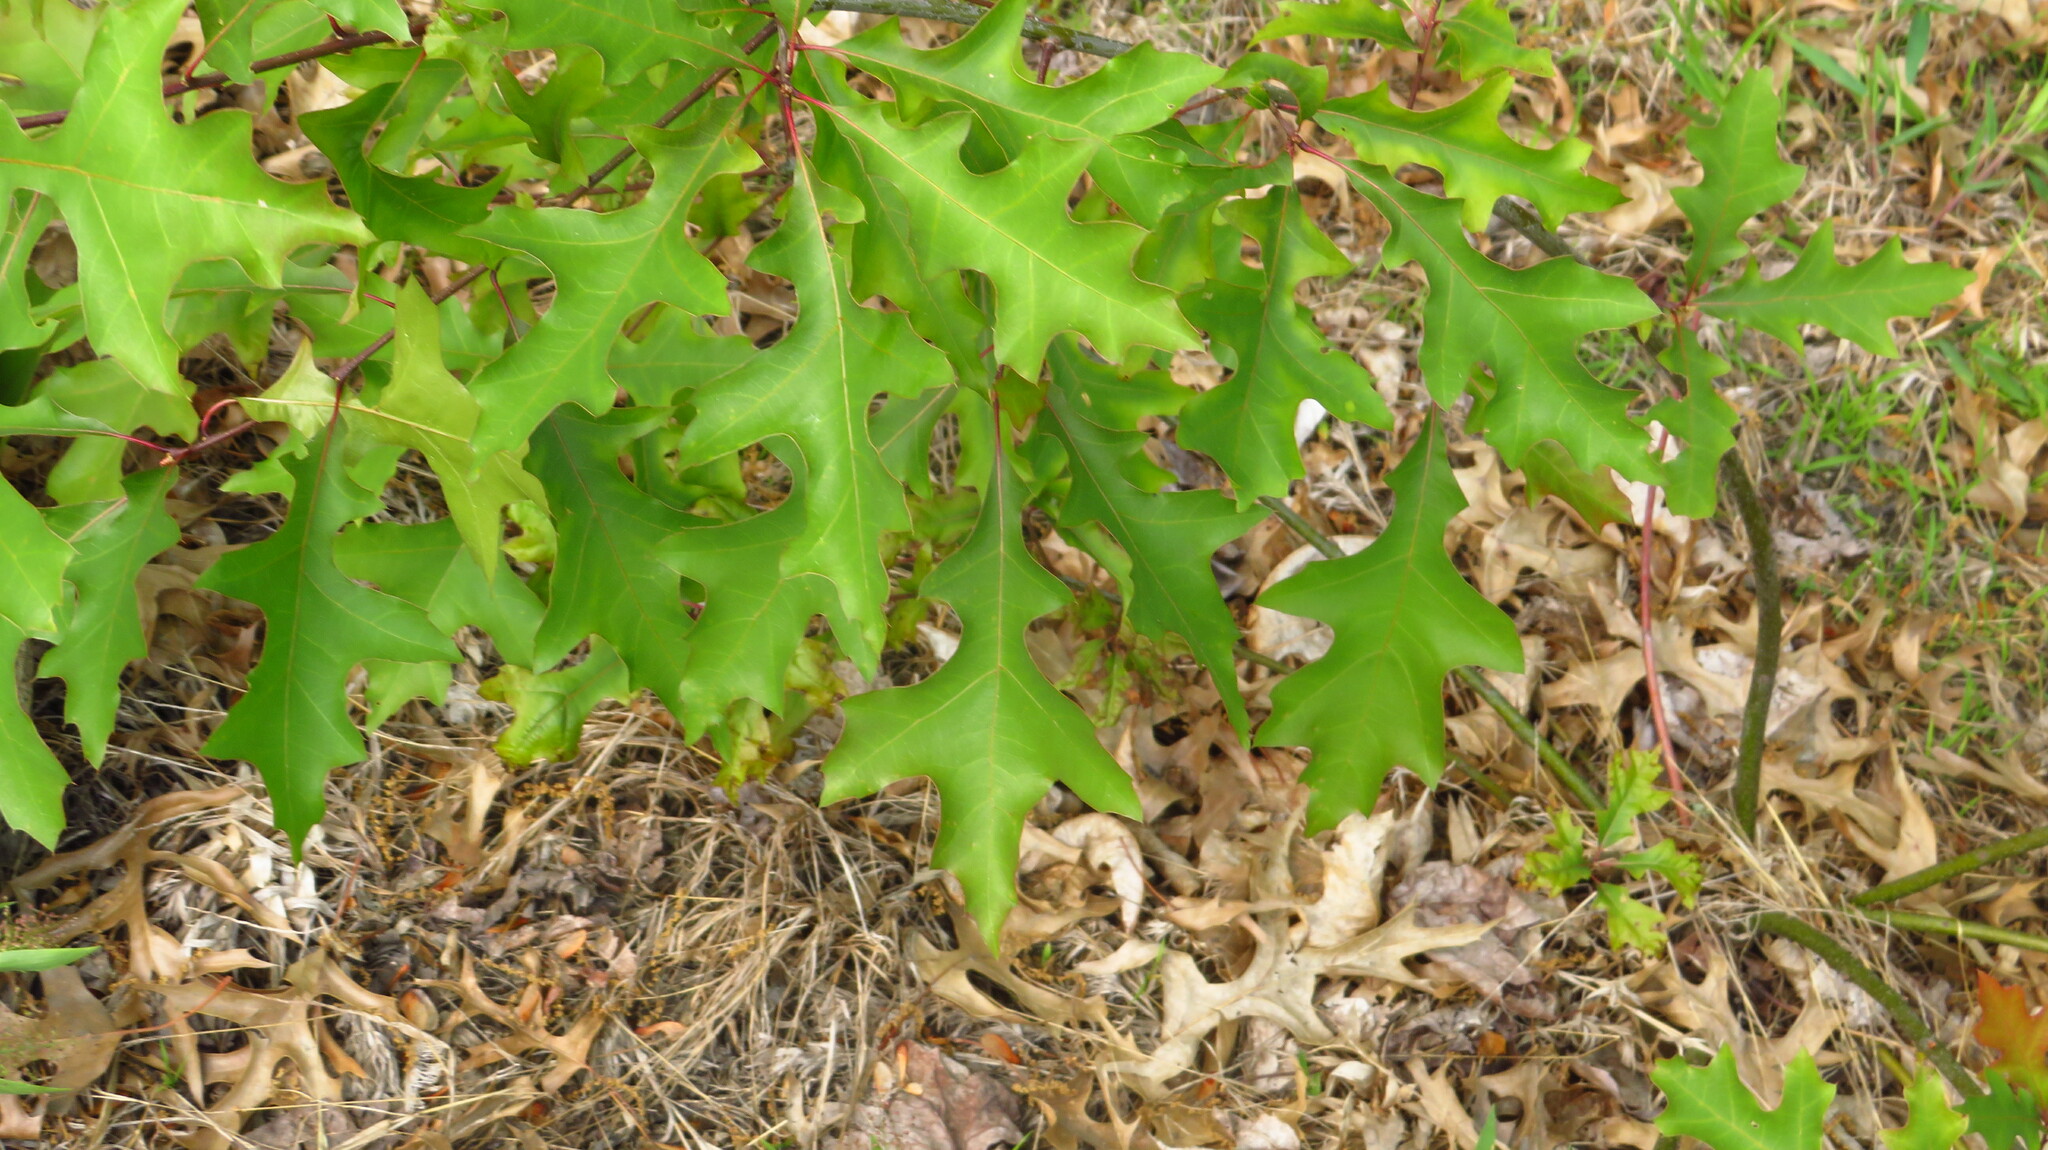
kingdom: Plantae
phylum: Tracheophyta
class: Magnoliopsida
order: Fagales
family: Fagaceae
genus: Quercus
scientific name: Quercus palustris
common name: Pin oak
